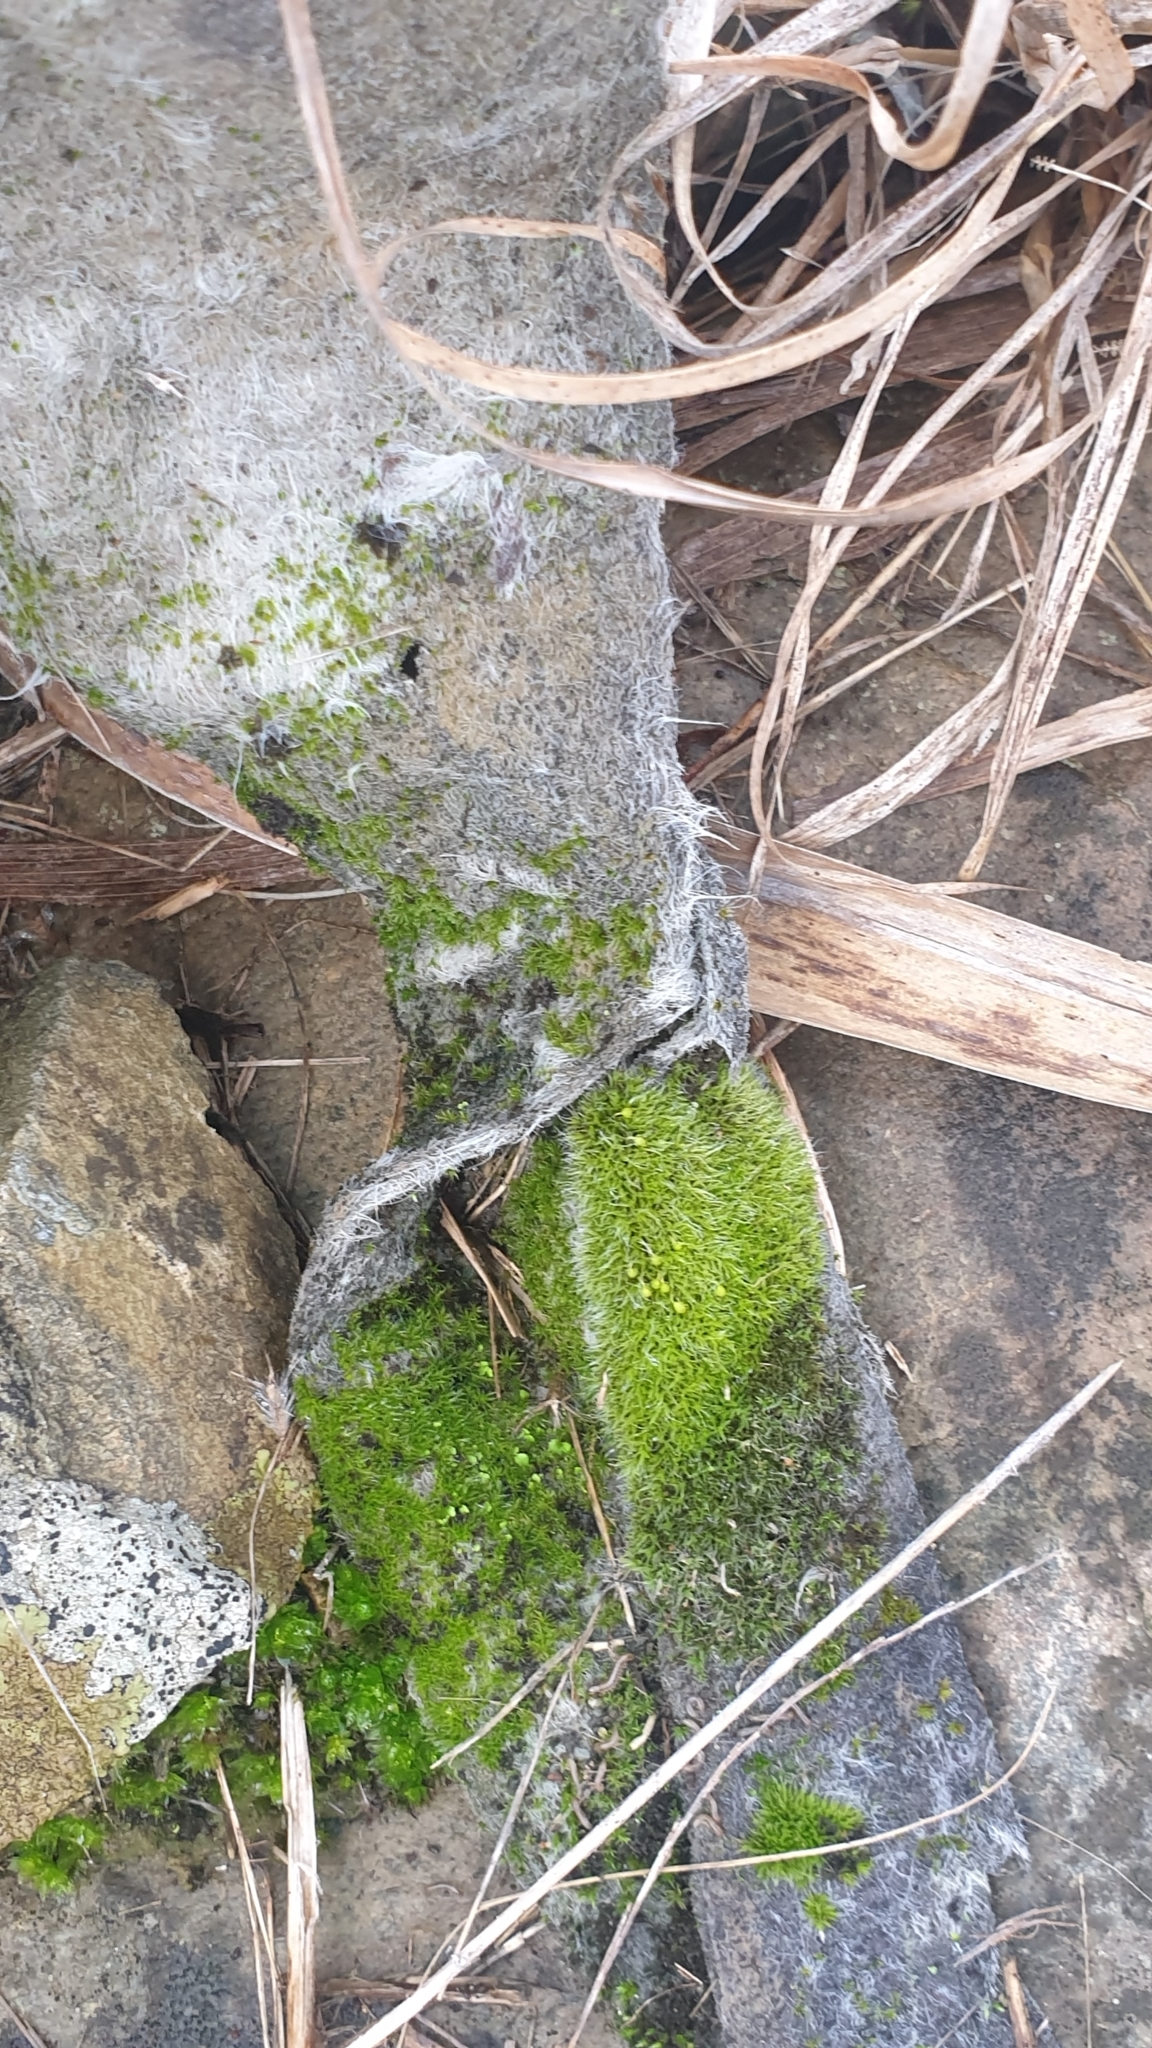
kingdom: Plantae
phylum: Bryophyta
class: Bryopsida
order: Grimmiales
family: Grimmiaceae
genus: Grimmia
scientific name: Grimmia pulvinata
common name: Grey-cushioned grimmia
